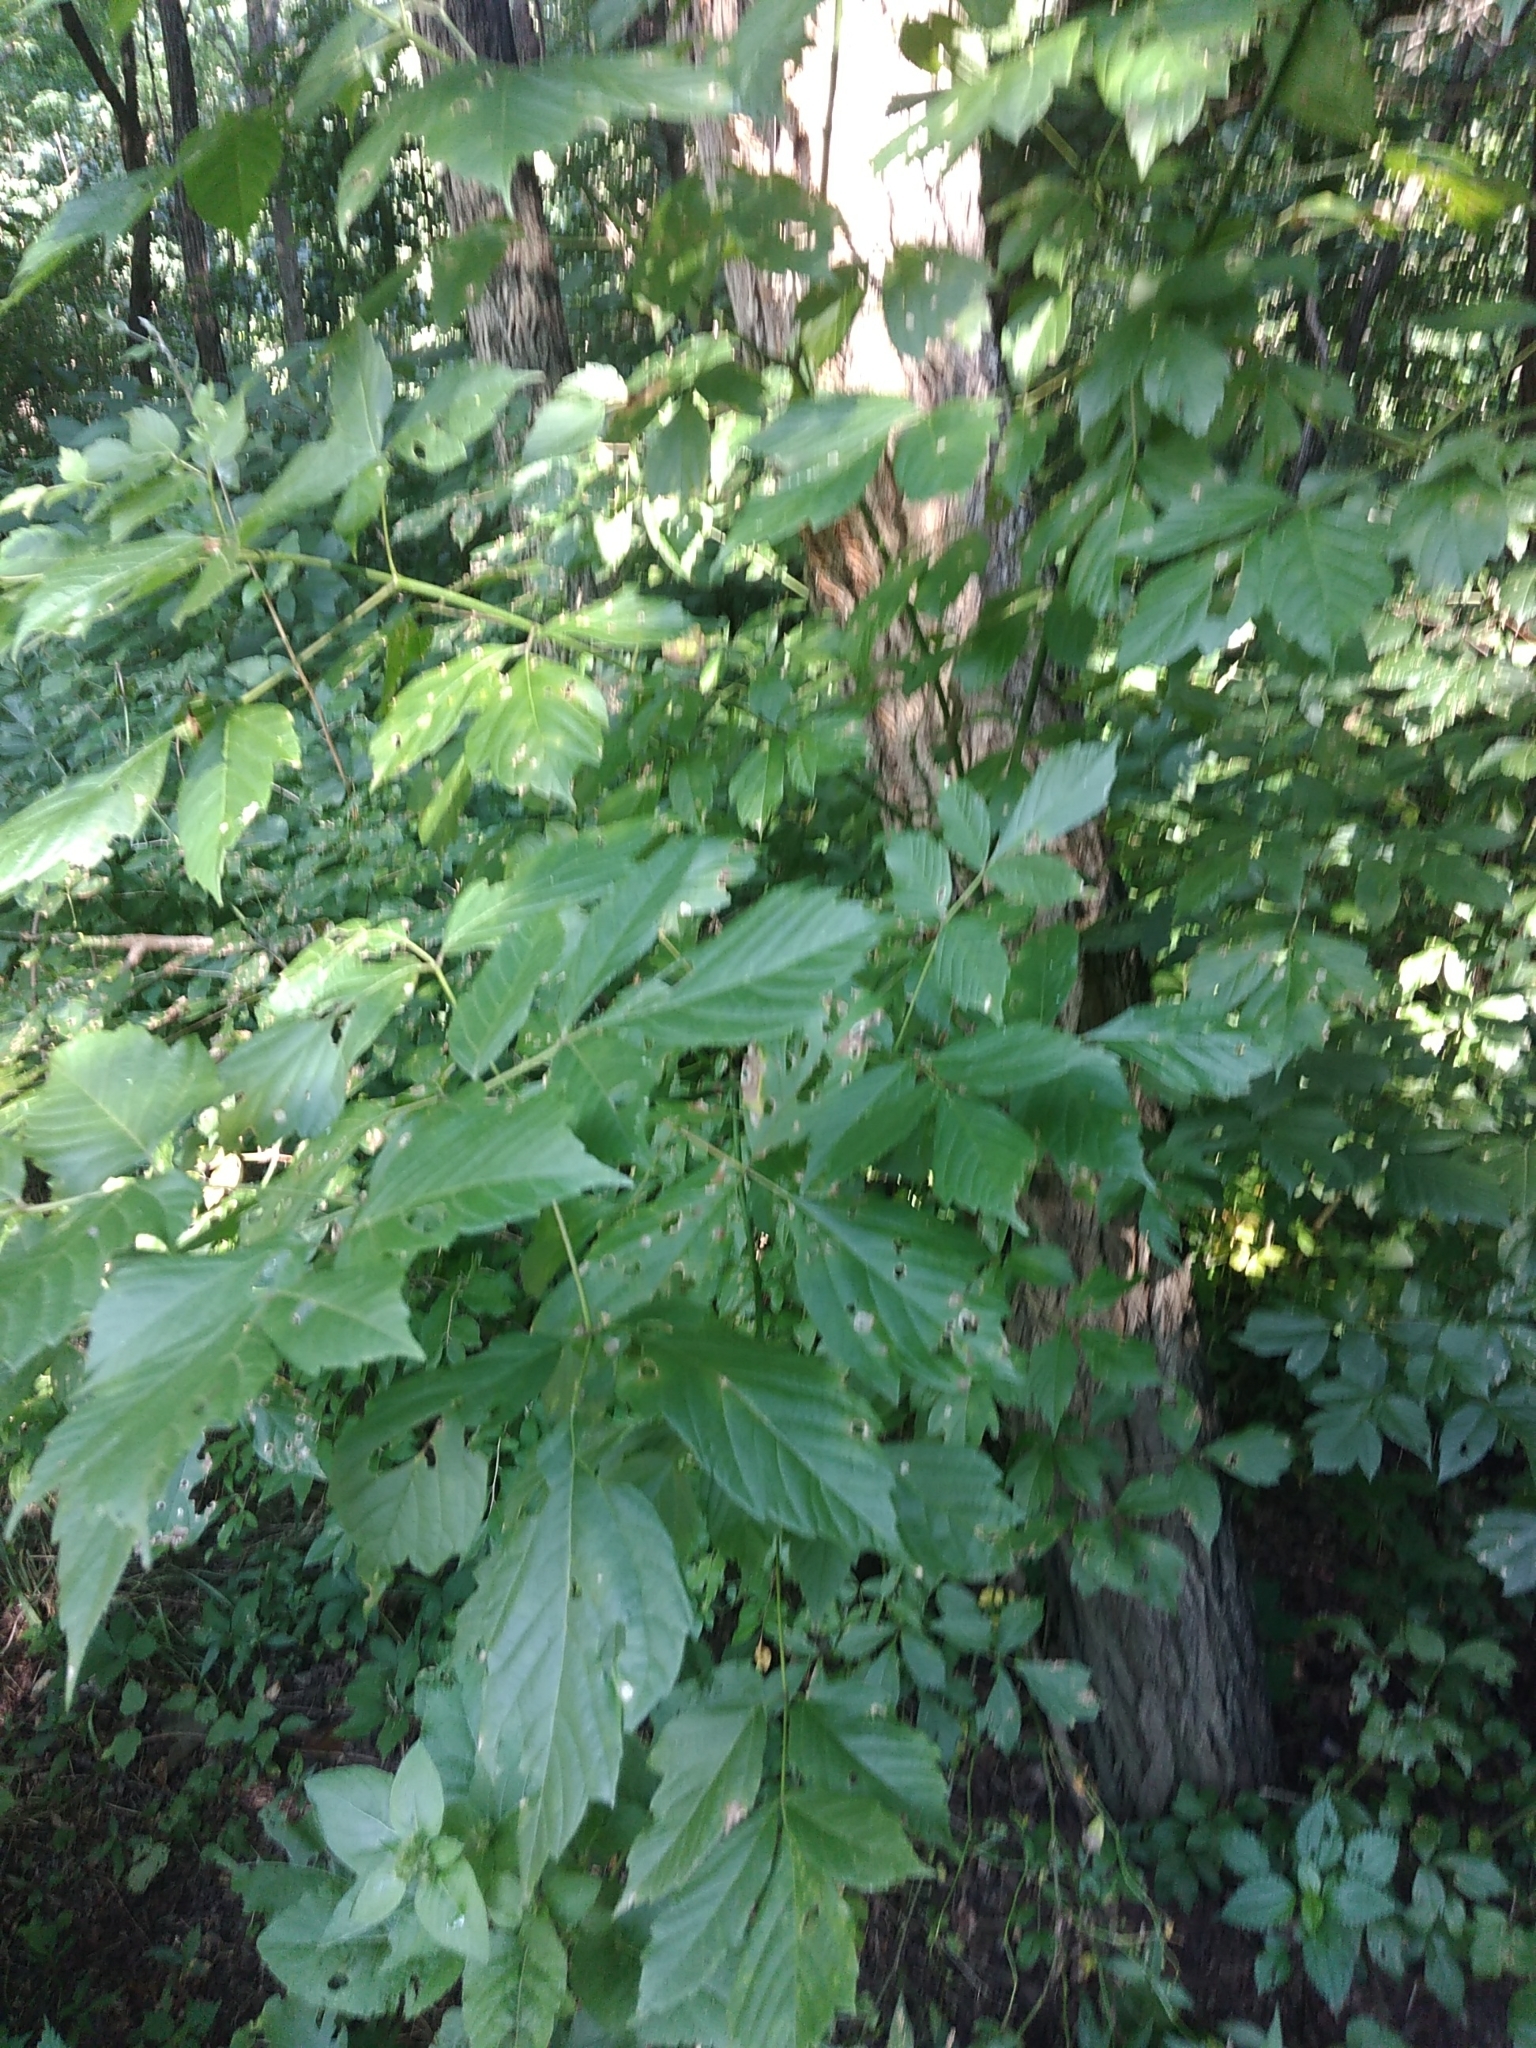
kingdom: Plantae
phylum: Tracheophyta
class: Magnoliopsida
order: Sapindales
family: Sapindaceae
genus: Acer
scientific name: Acer negundo
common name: Ashleaf maple
